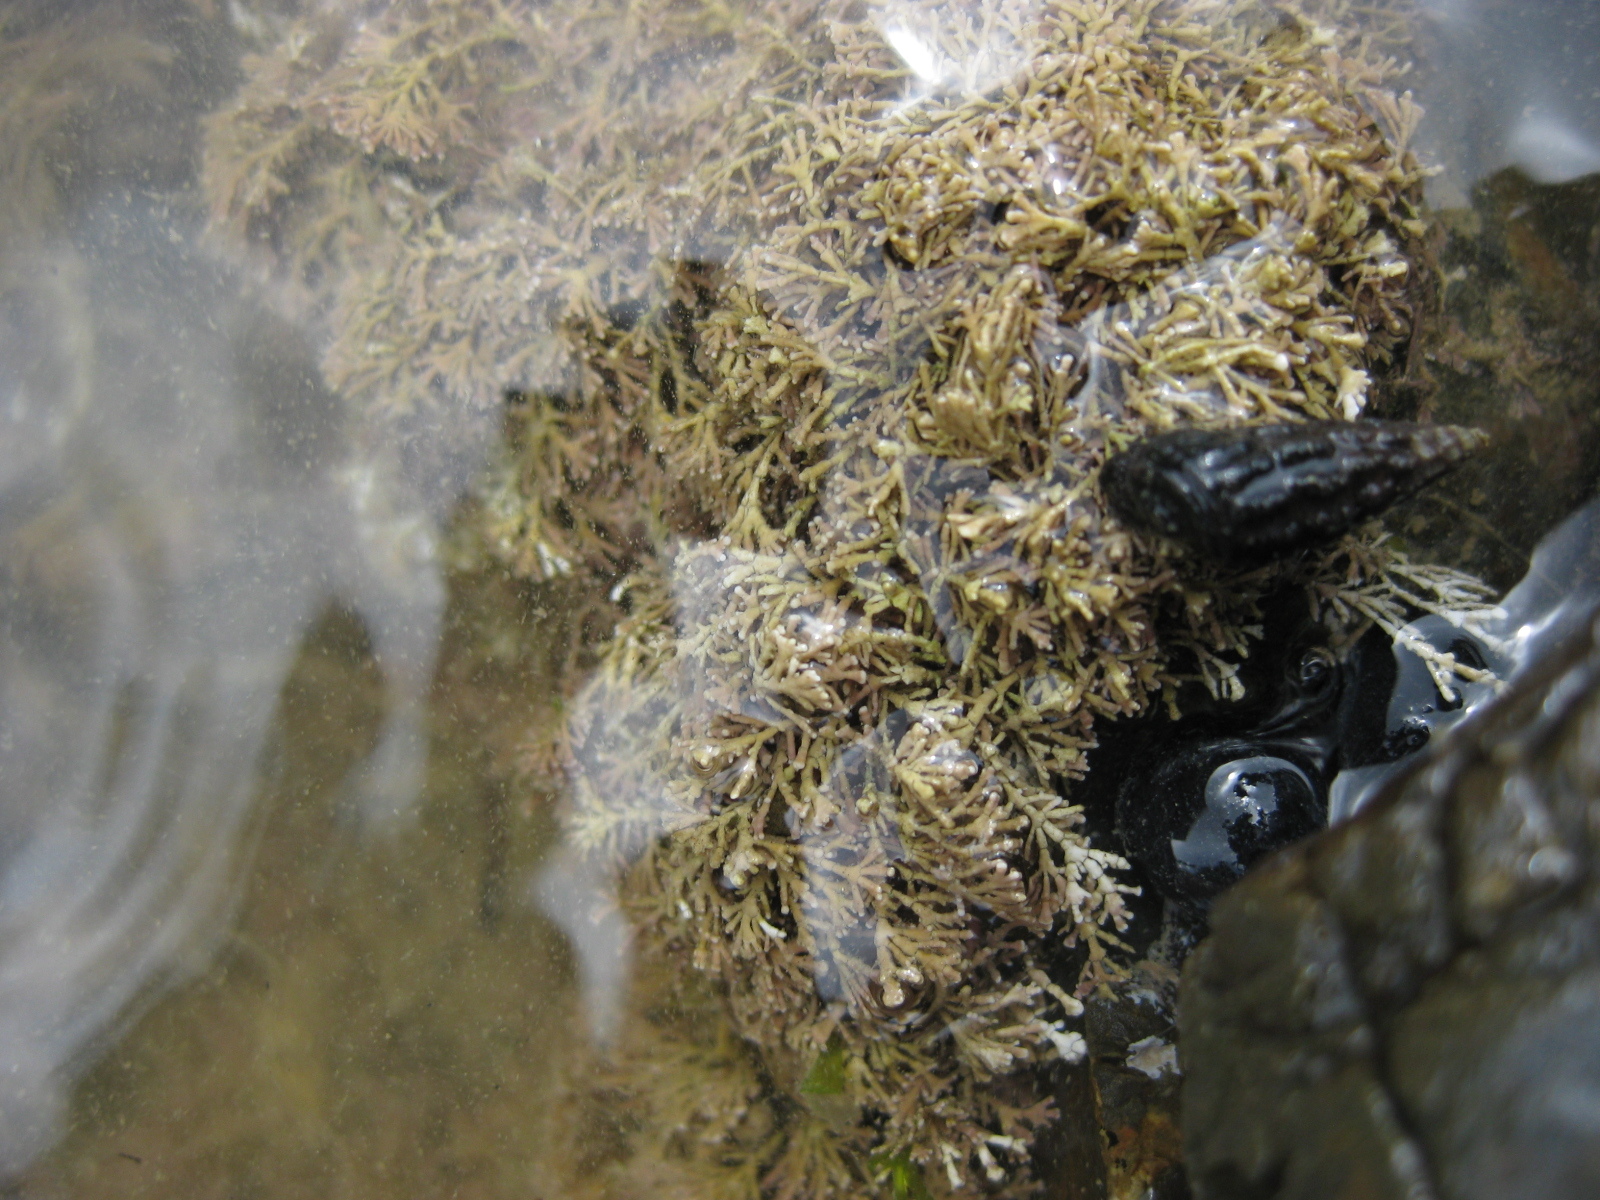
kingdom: Plantae
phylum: Rhodophyta
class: Florideophyceae
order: Corallinales
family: Corallinaceae
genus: Corallina
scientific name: Corallina officinalis
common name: Coral weed
